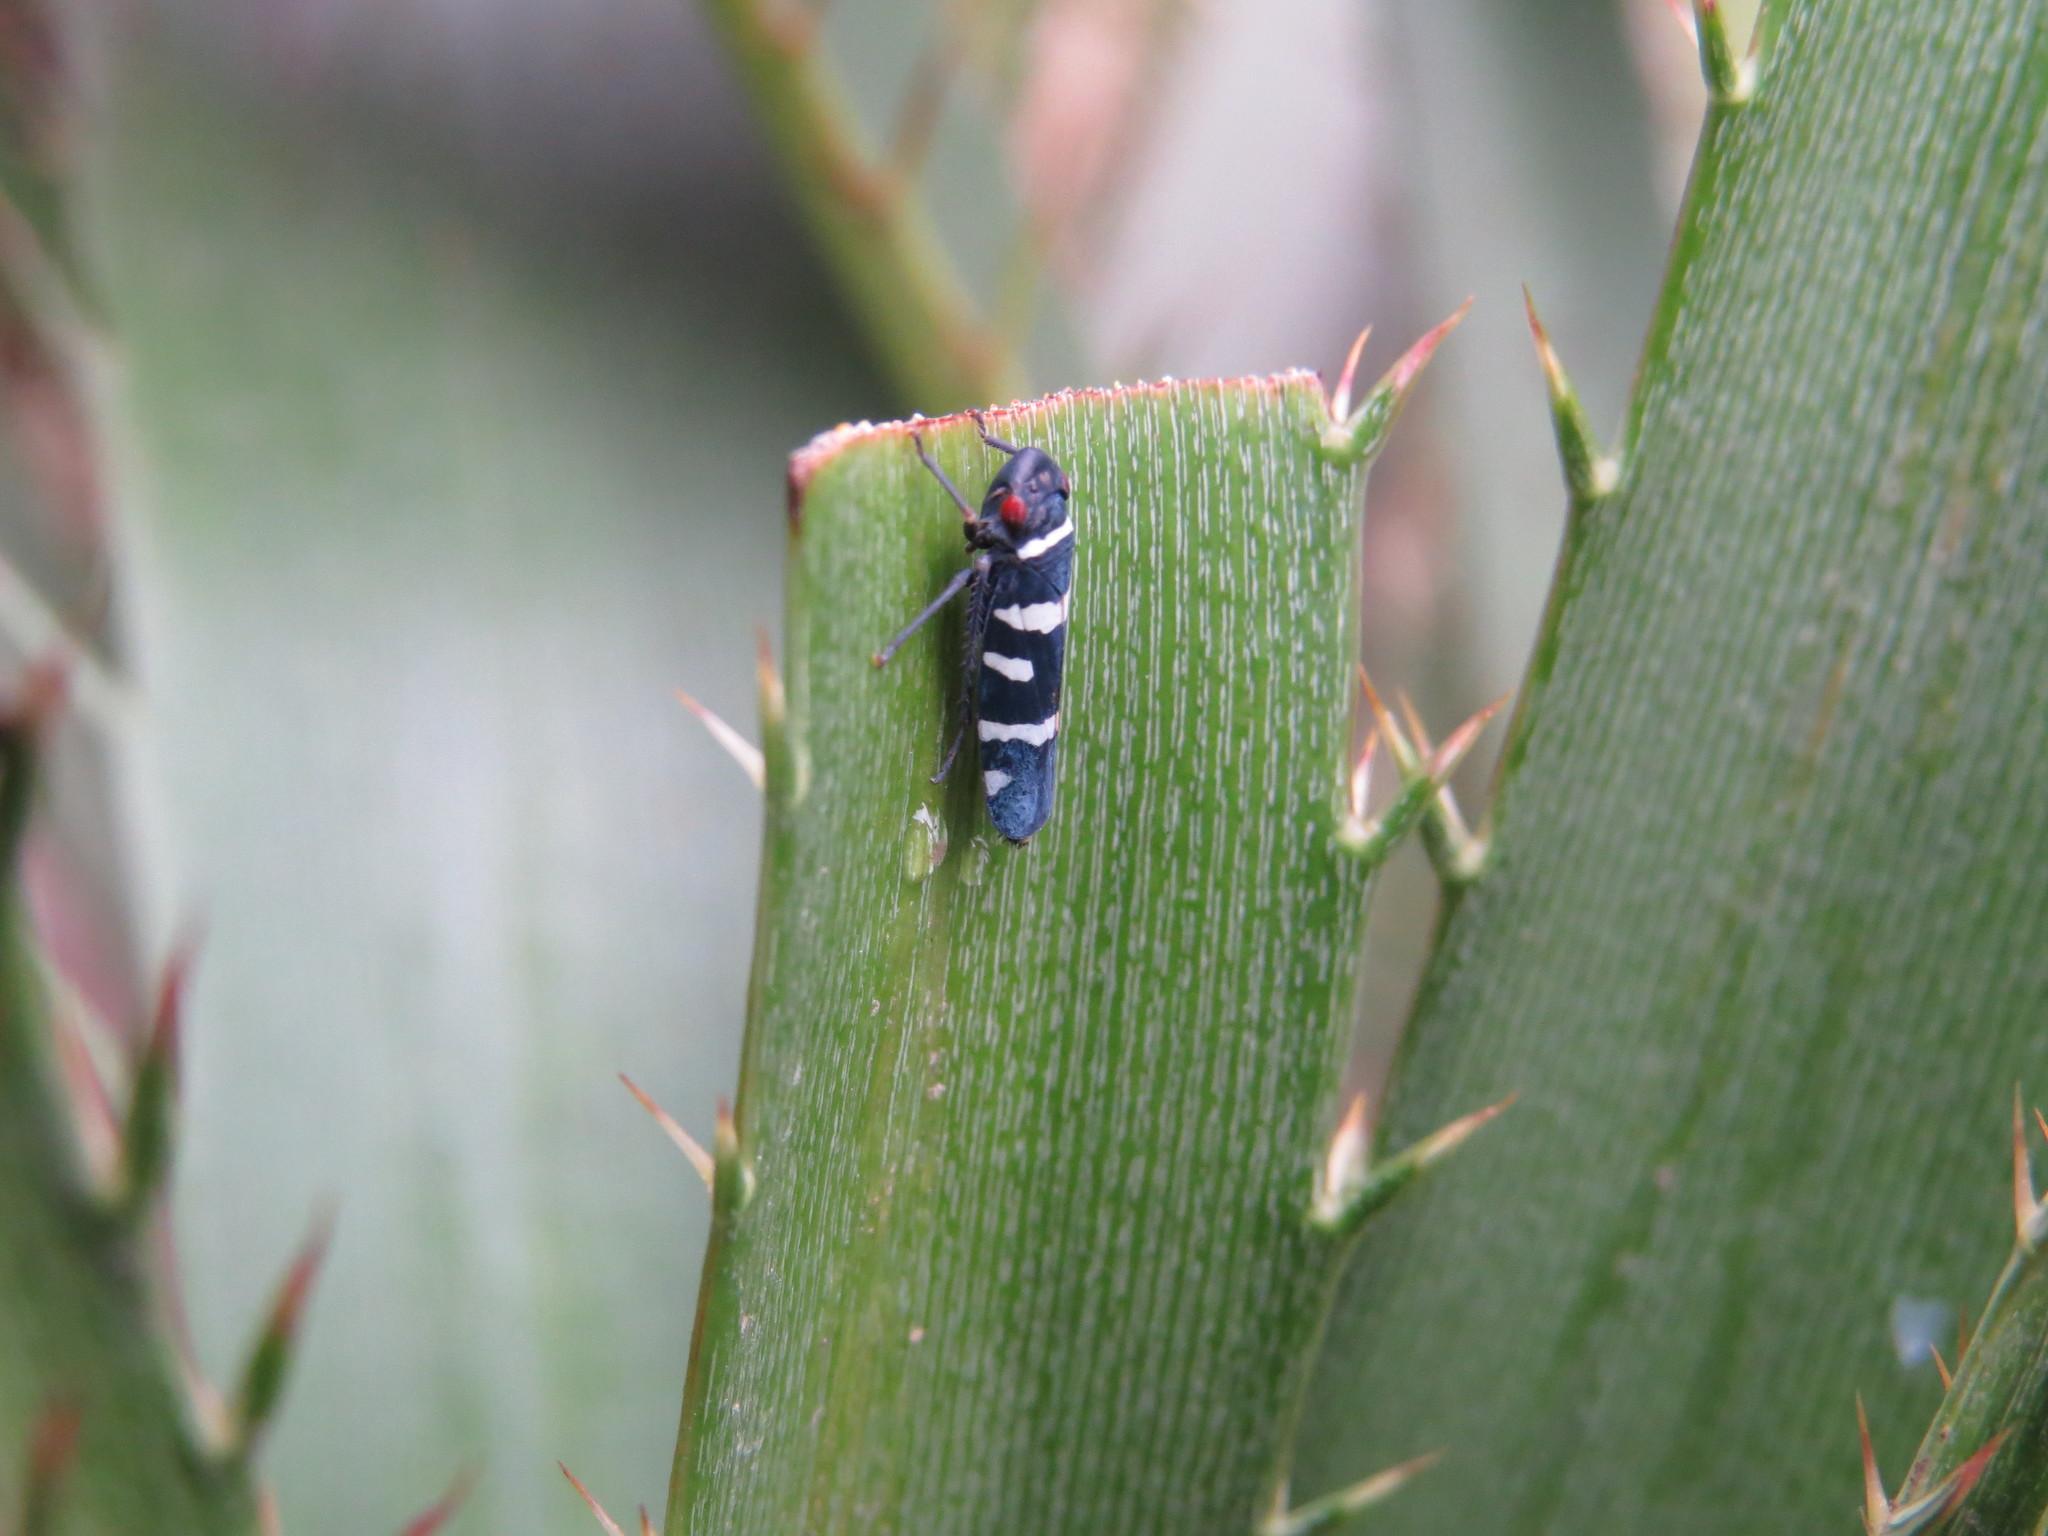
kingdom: Animalia
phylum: Arthropoda
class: Insecta
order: Hemiptera
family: Cicadellidae
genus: Balacha
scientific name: Balacha melanocephala
